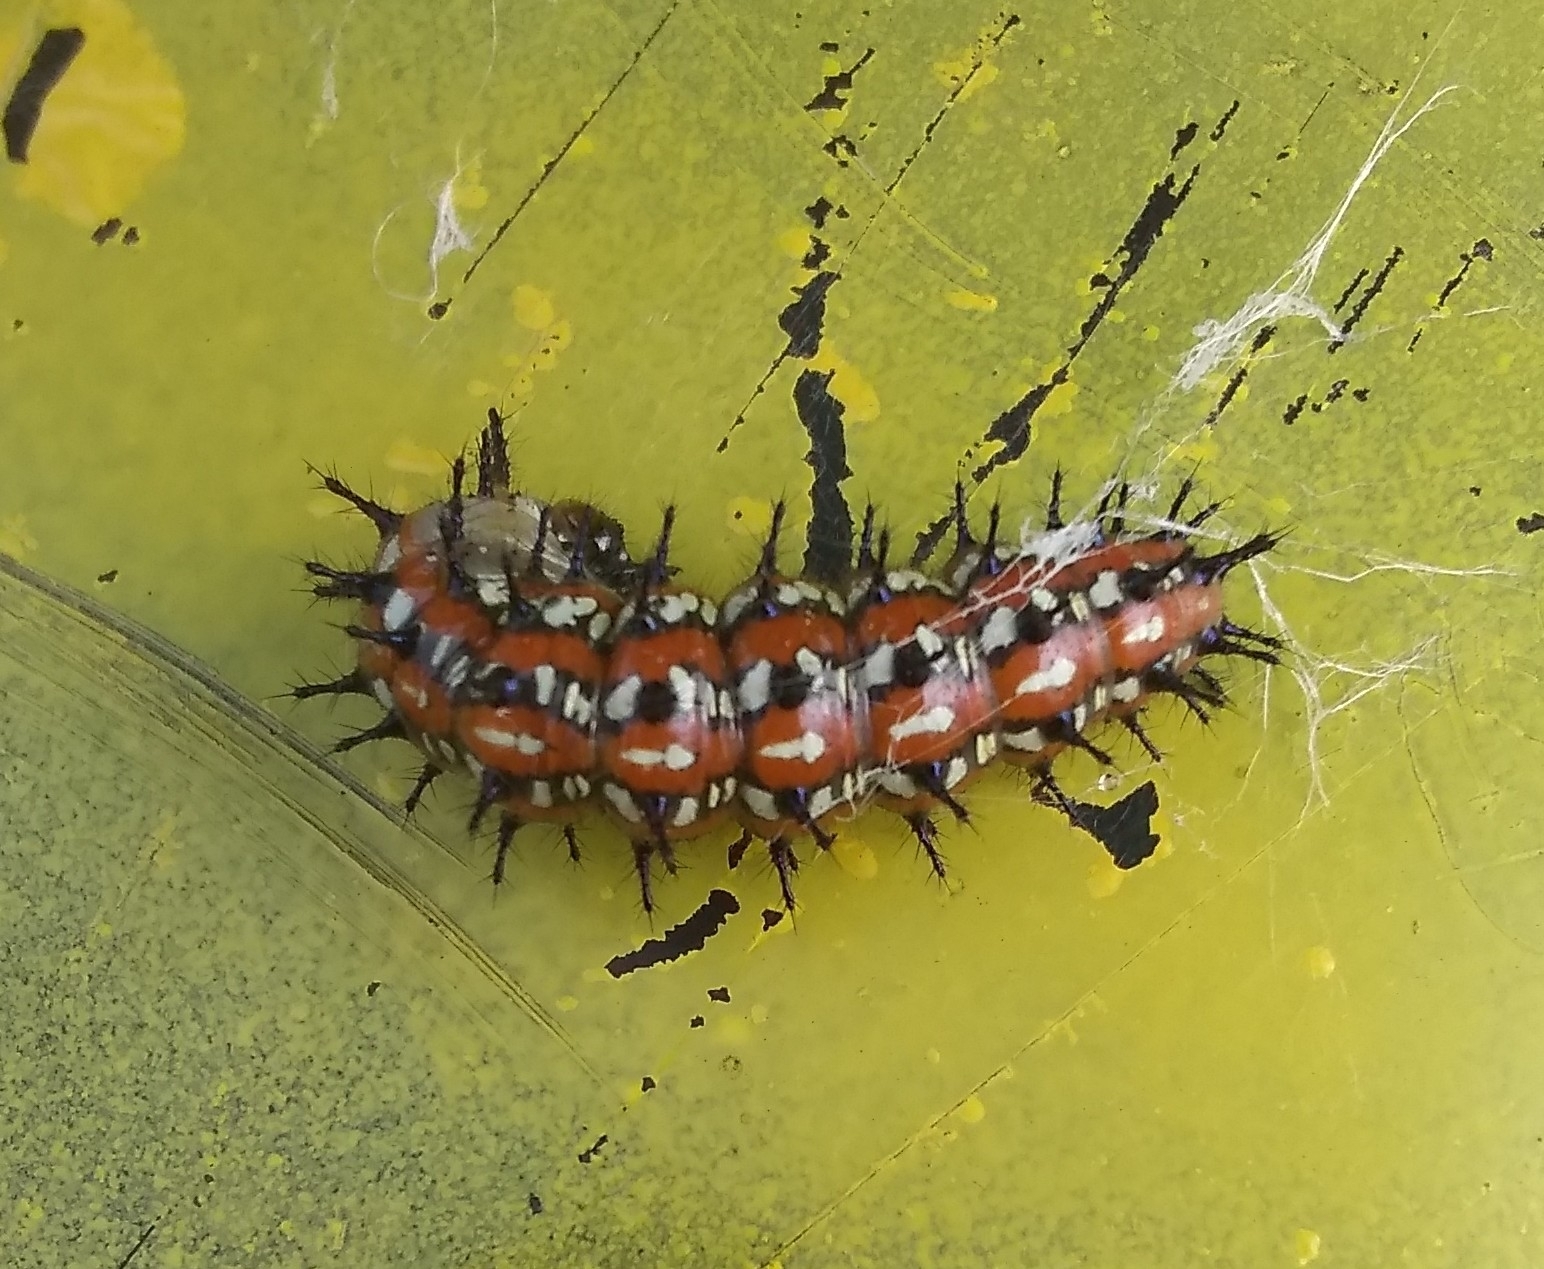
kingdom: Animalia
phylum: Arthropoda
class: Insecta
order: Lepidoptera
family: Nymphalidae
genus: Euptoieta
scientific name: Euptoieta claudia
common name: Variegated fritillary
